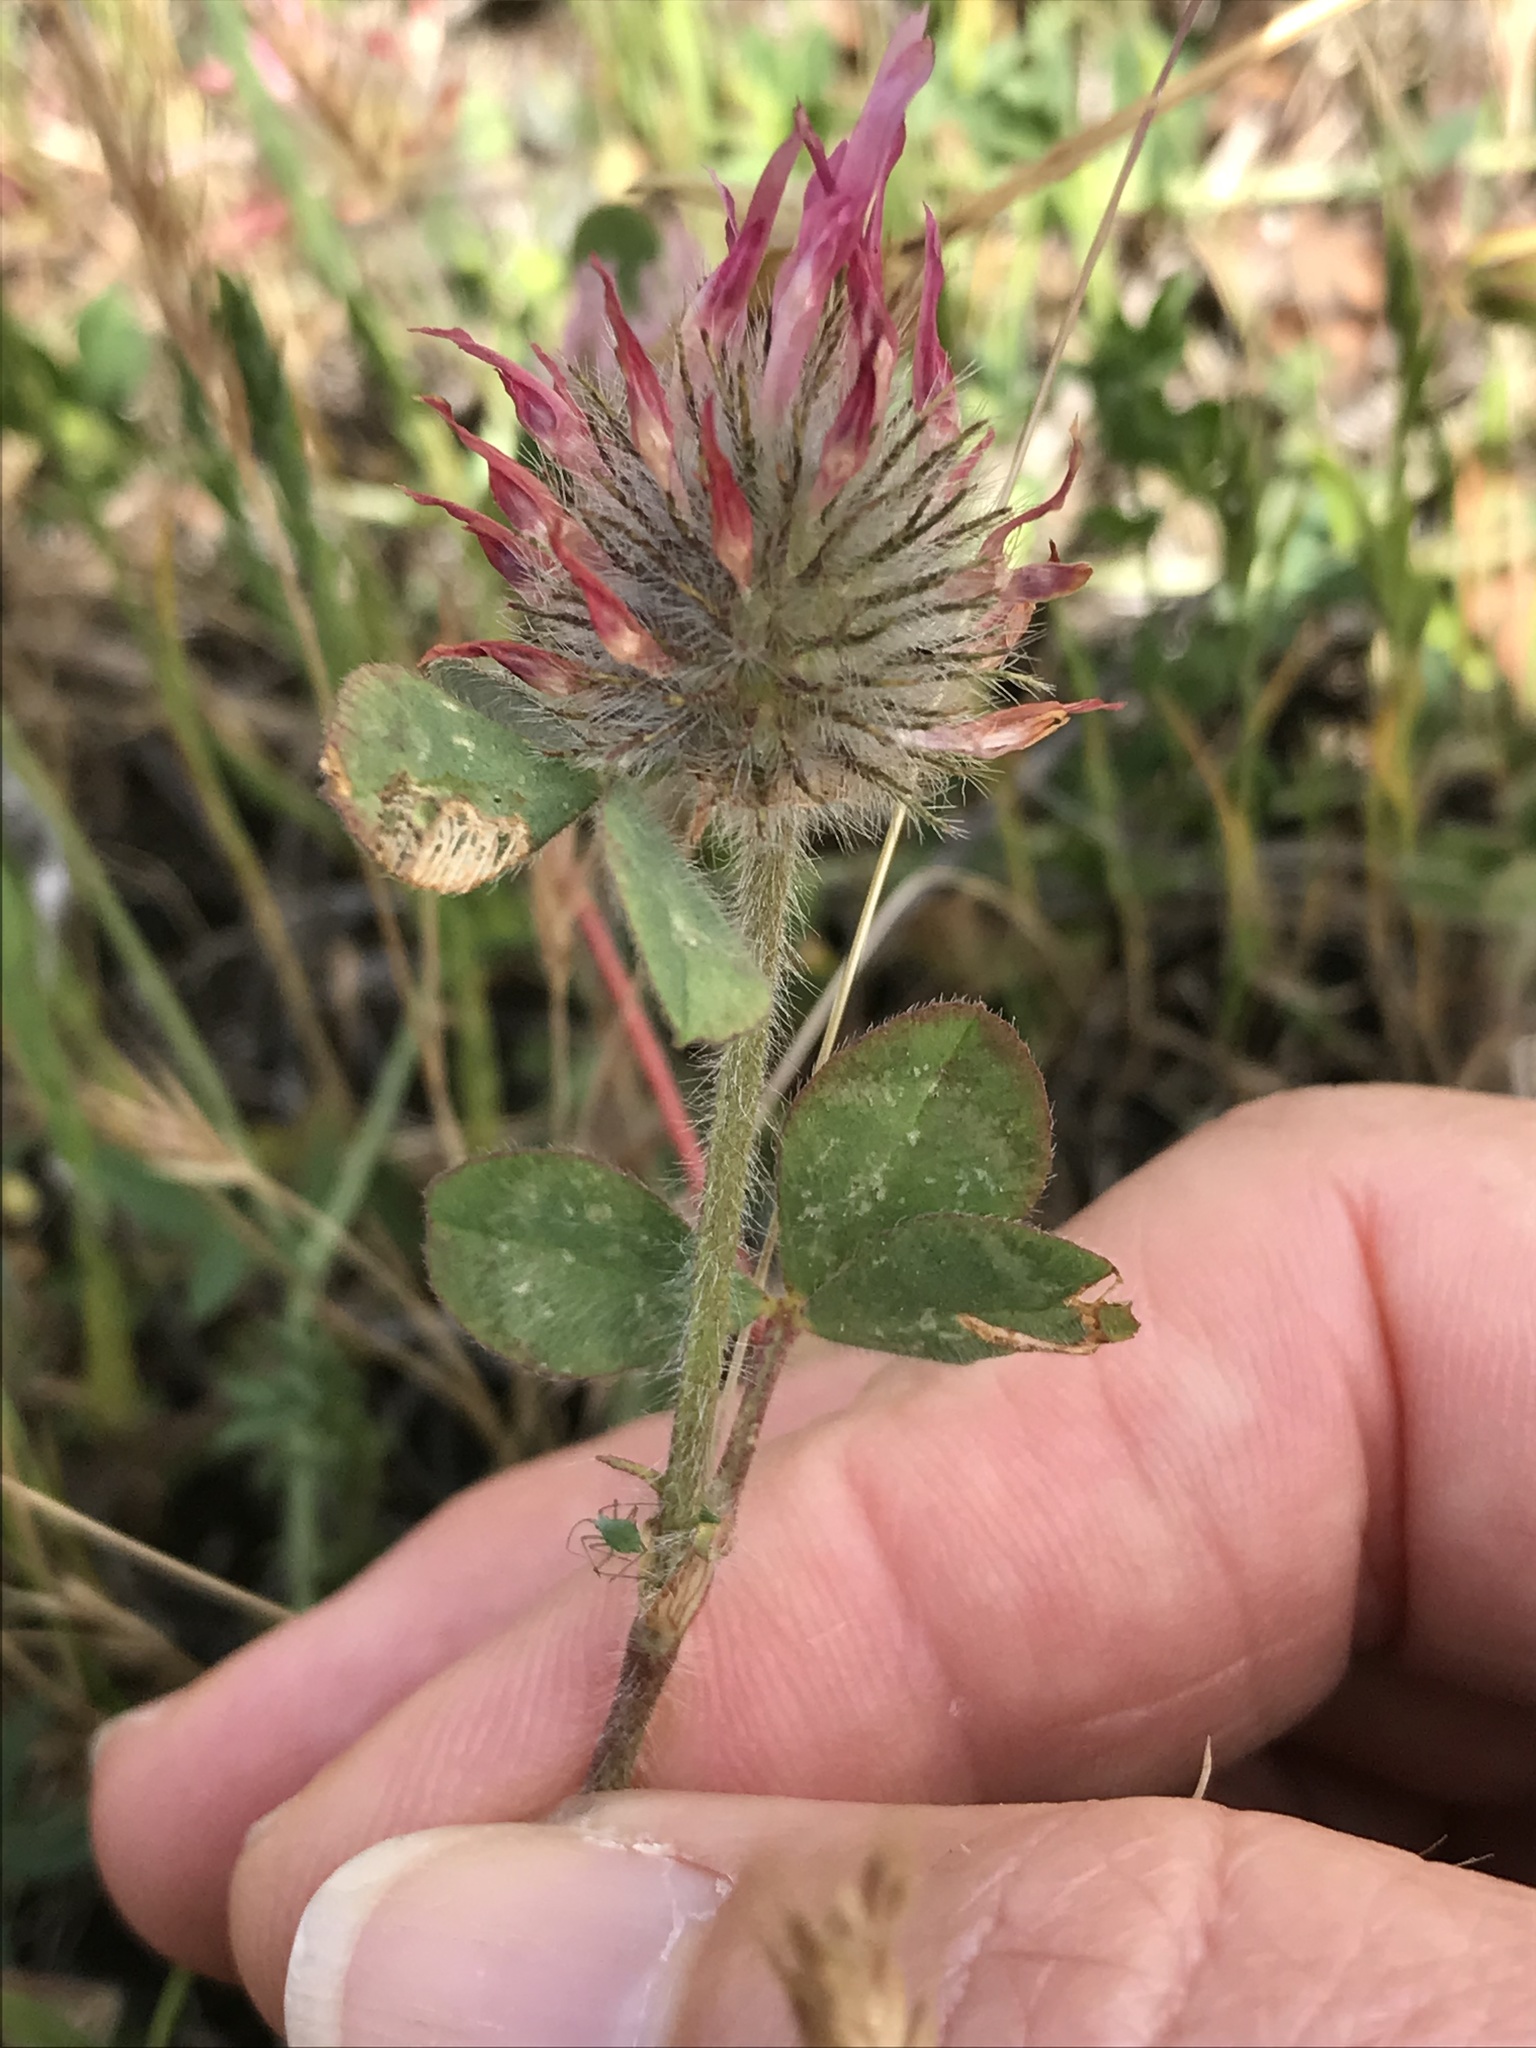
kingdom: Plantae
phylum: Tracheophyta
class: Magnoliopsida
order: Fabales
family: Fabaceae
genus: Trifolium
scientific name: Trifolium hirtum
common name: Rose clover
